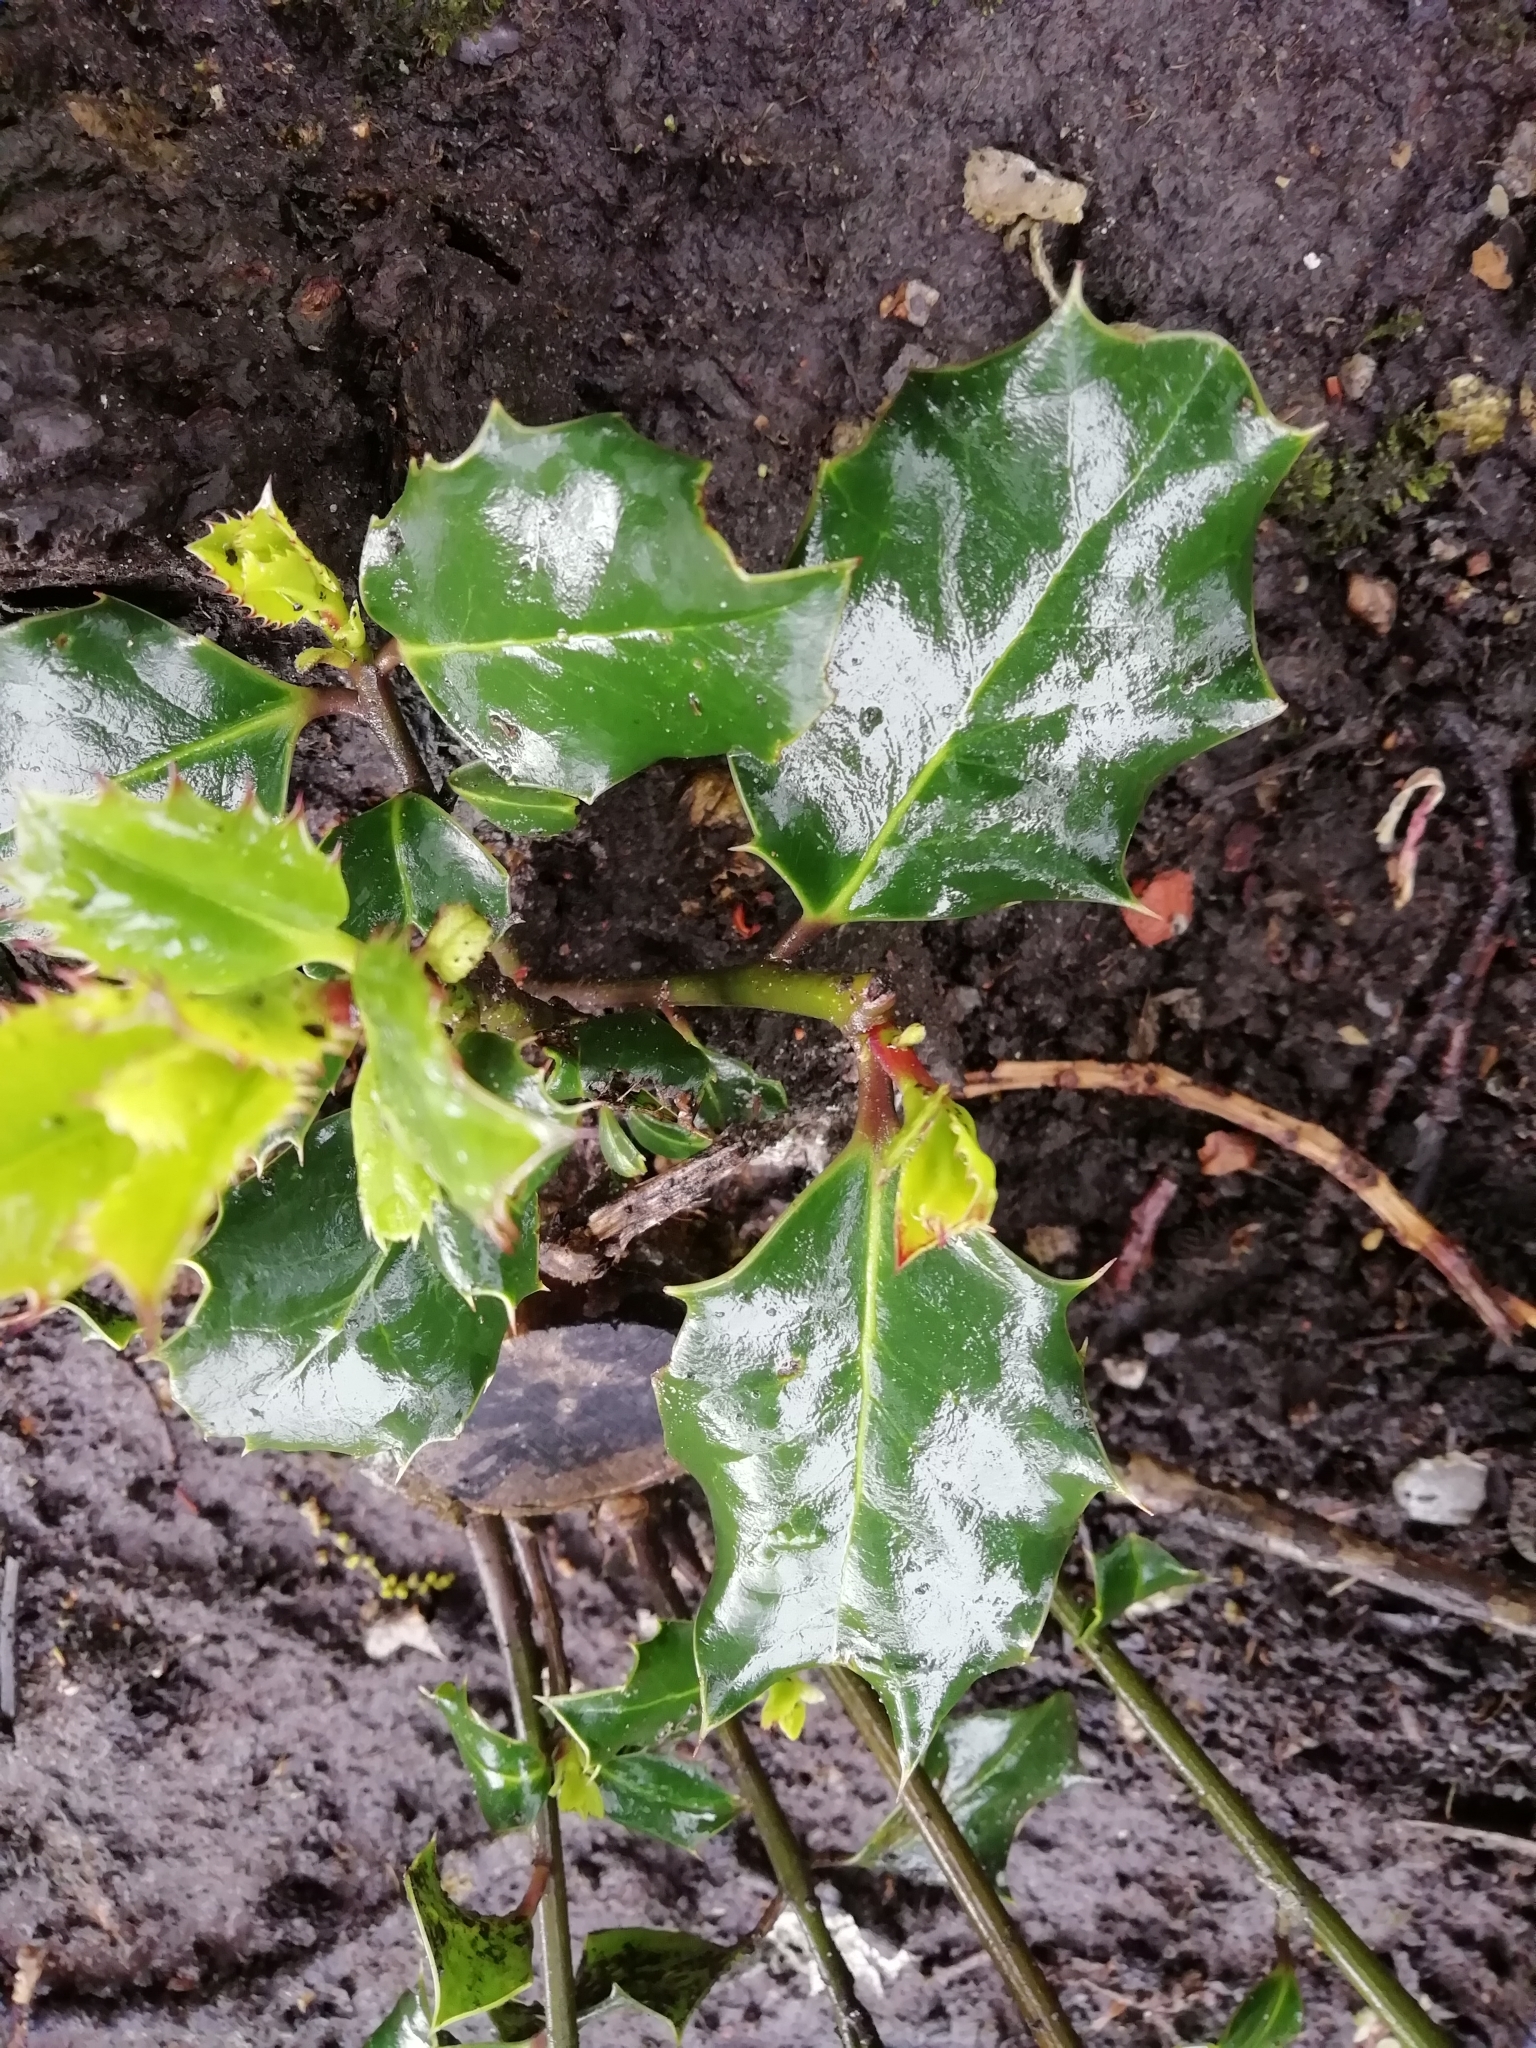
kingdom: Plantae
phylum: Tracheophyta
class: Magnoliopsida
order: Aquifoliales
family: Aquifoliaceae
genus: Ilex
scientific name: Ilex aquifolium
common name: English holly
